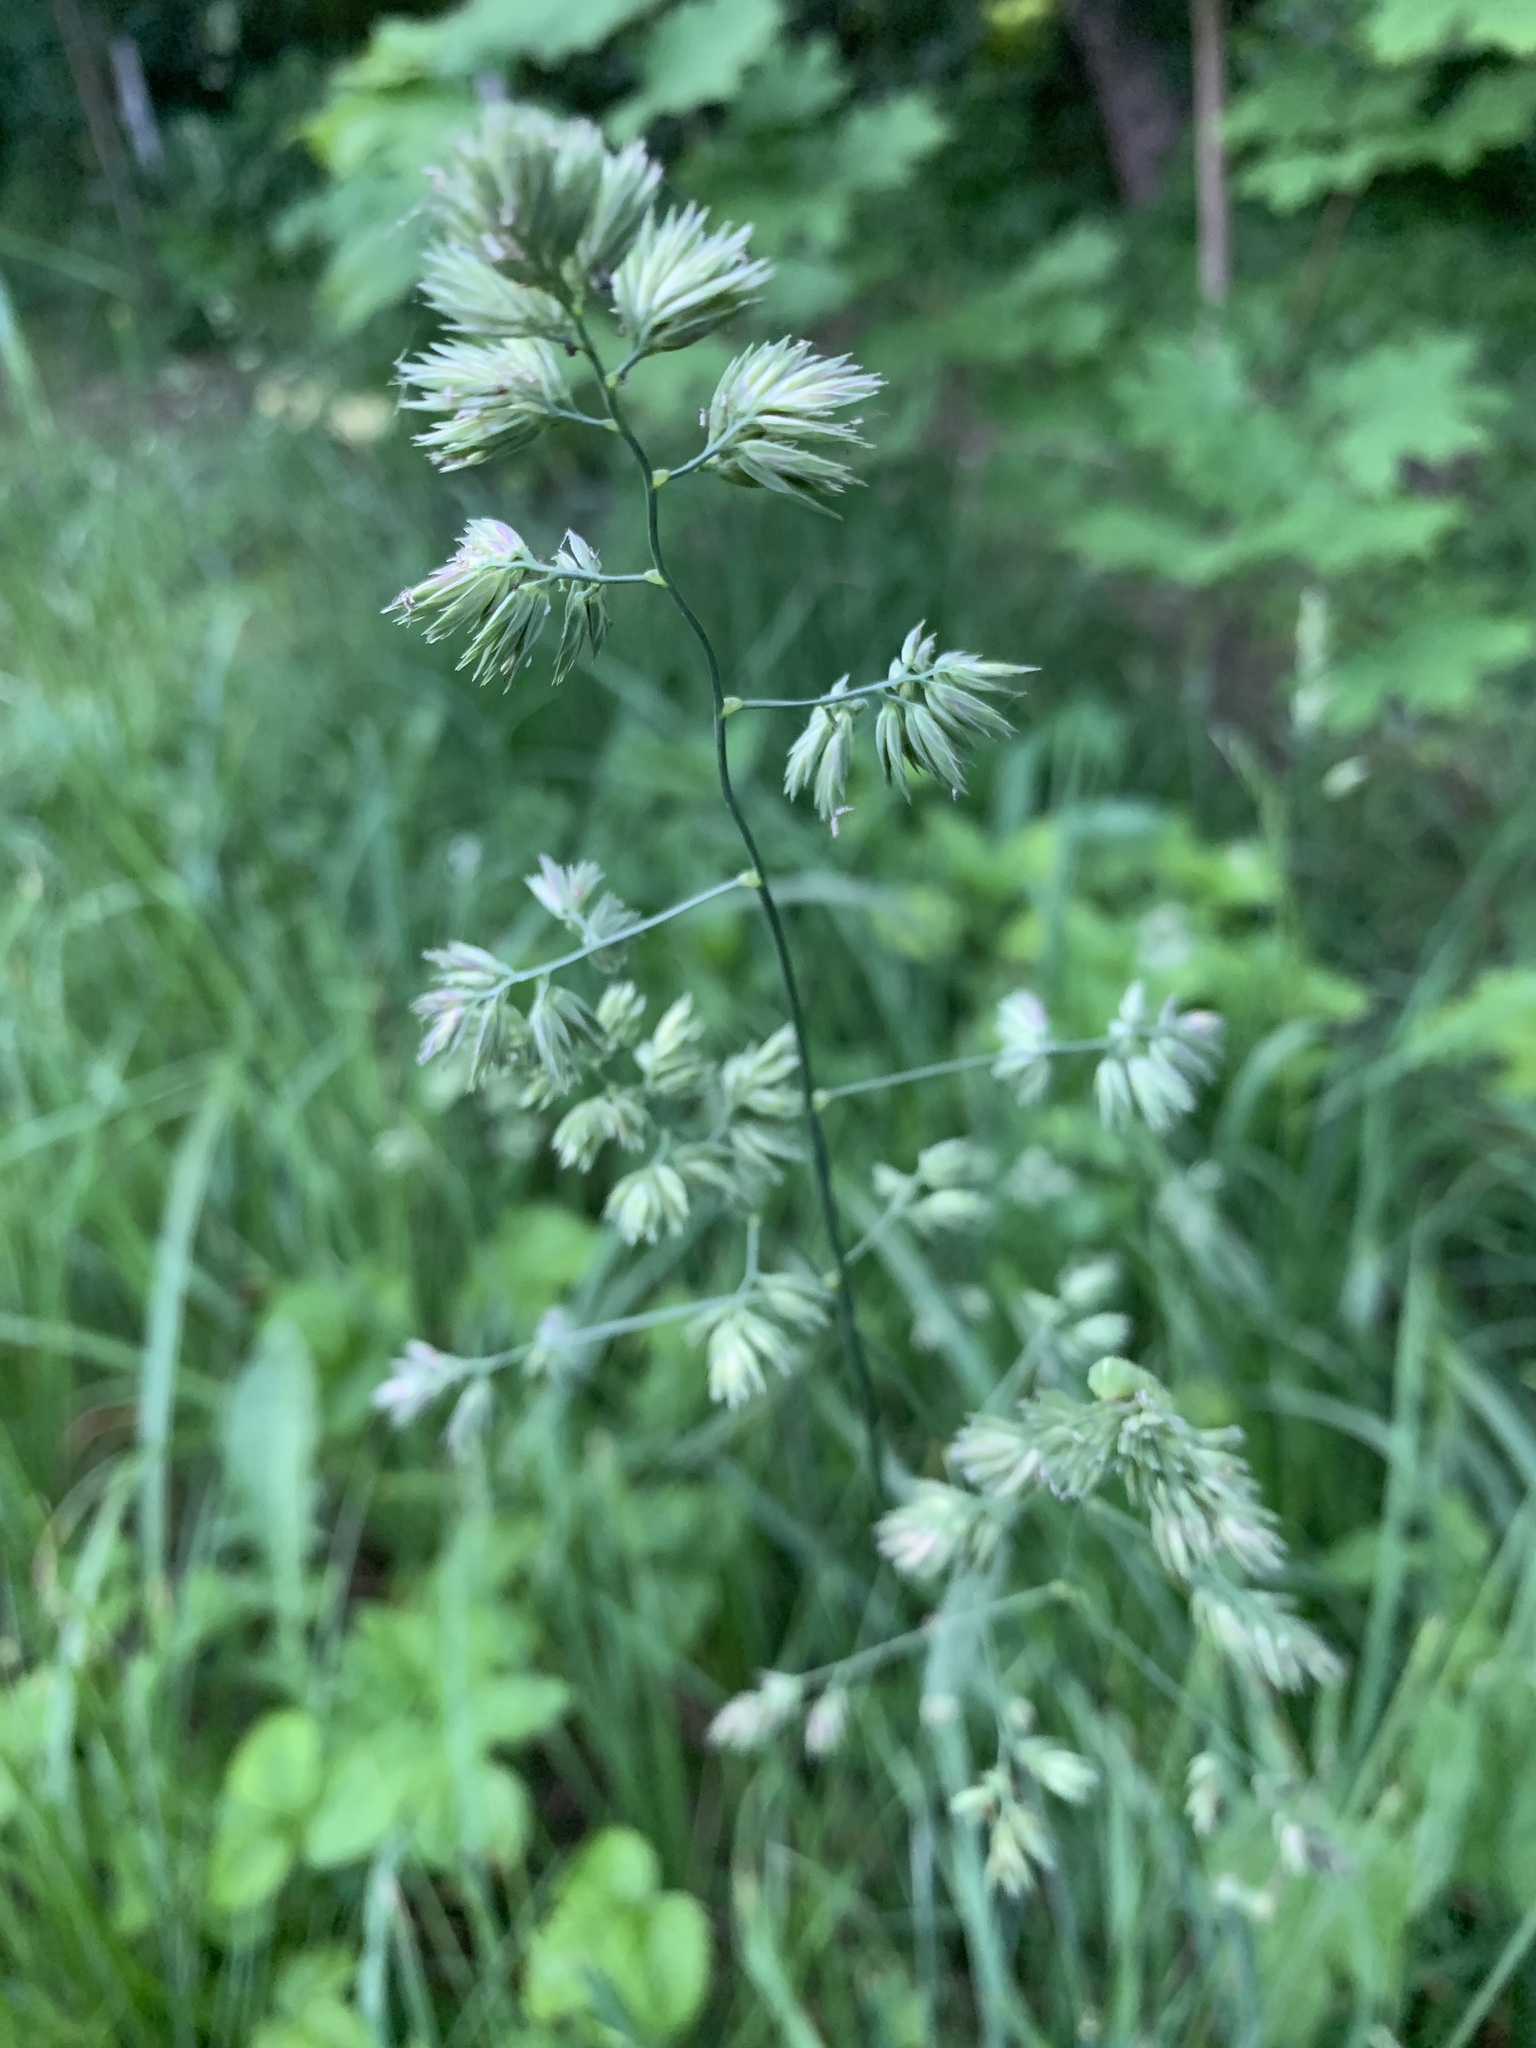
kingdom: Plantae
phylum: Tracheophyta
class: Liliopsida
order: Poales
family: Poaceae
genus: Dactylis
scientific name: Dactylis glomerata
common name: Orchardgrass
